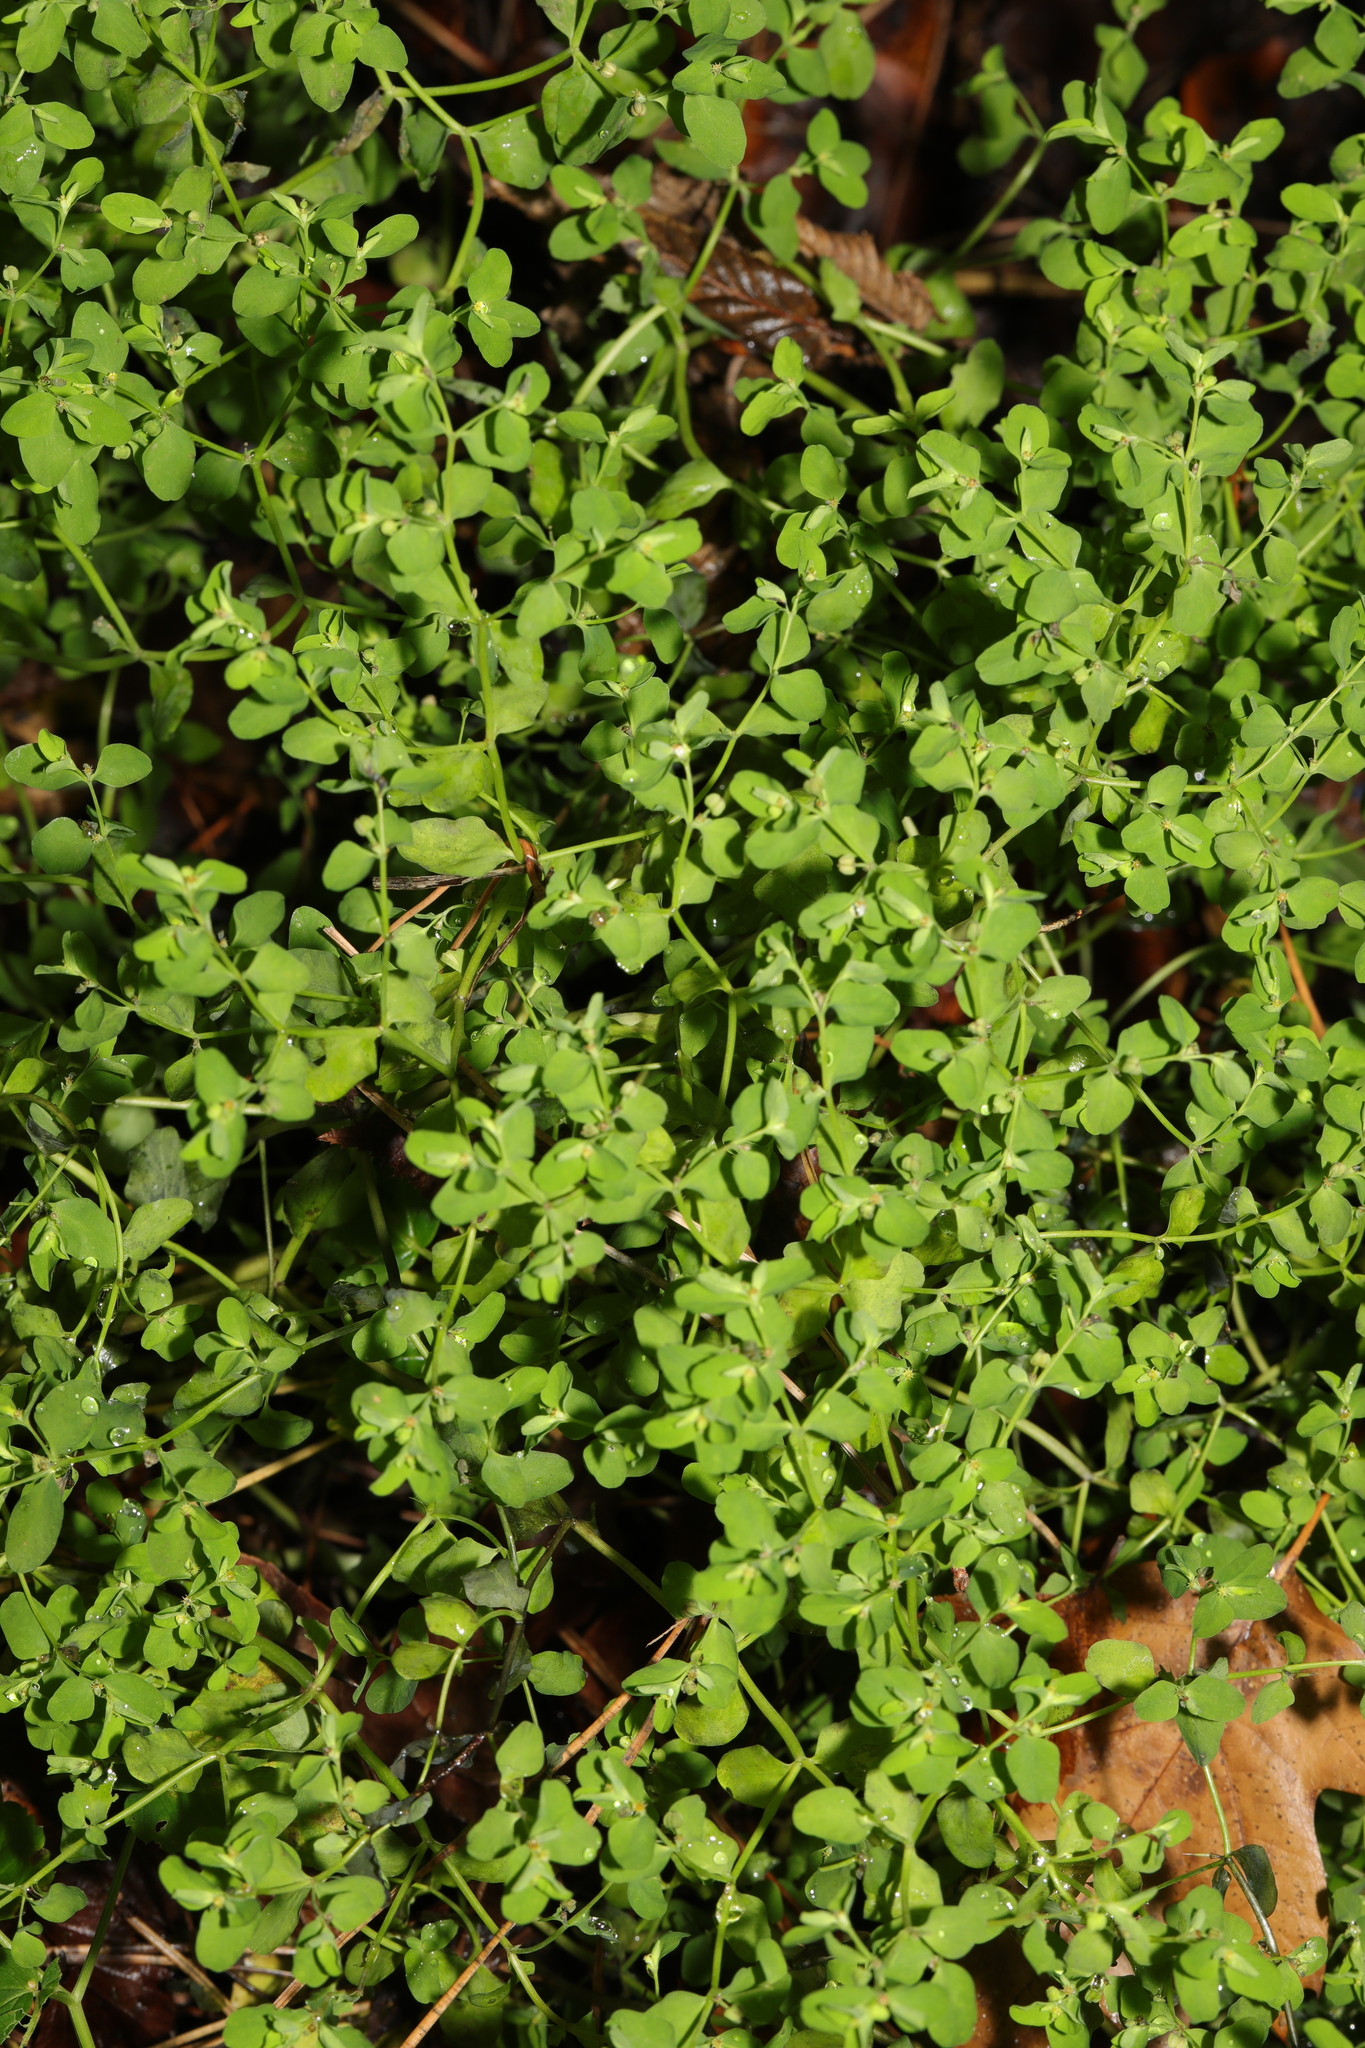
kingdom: Plantae
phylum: Tracheophyta
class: Magnoliopsida
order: Malpighiales
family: Euphorbiaceae
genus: Euphorbia
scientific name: Euphorbia peplus
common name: Petty spurge
